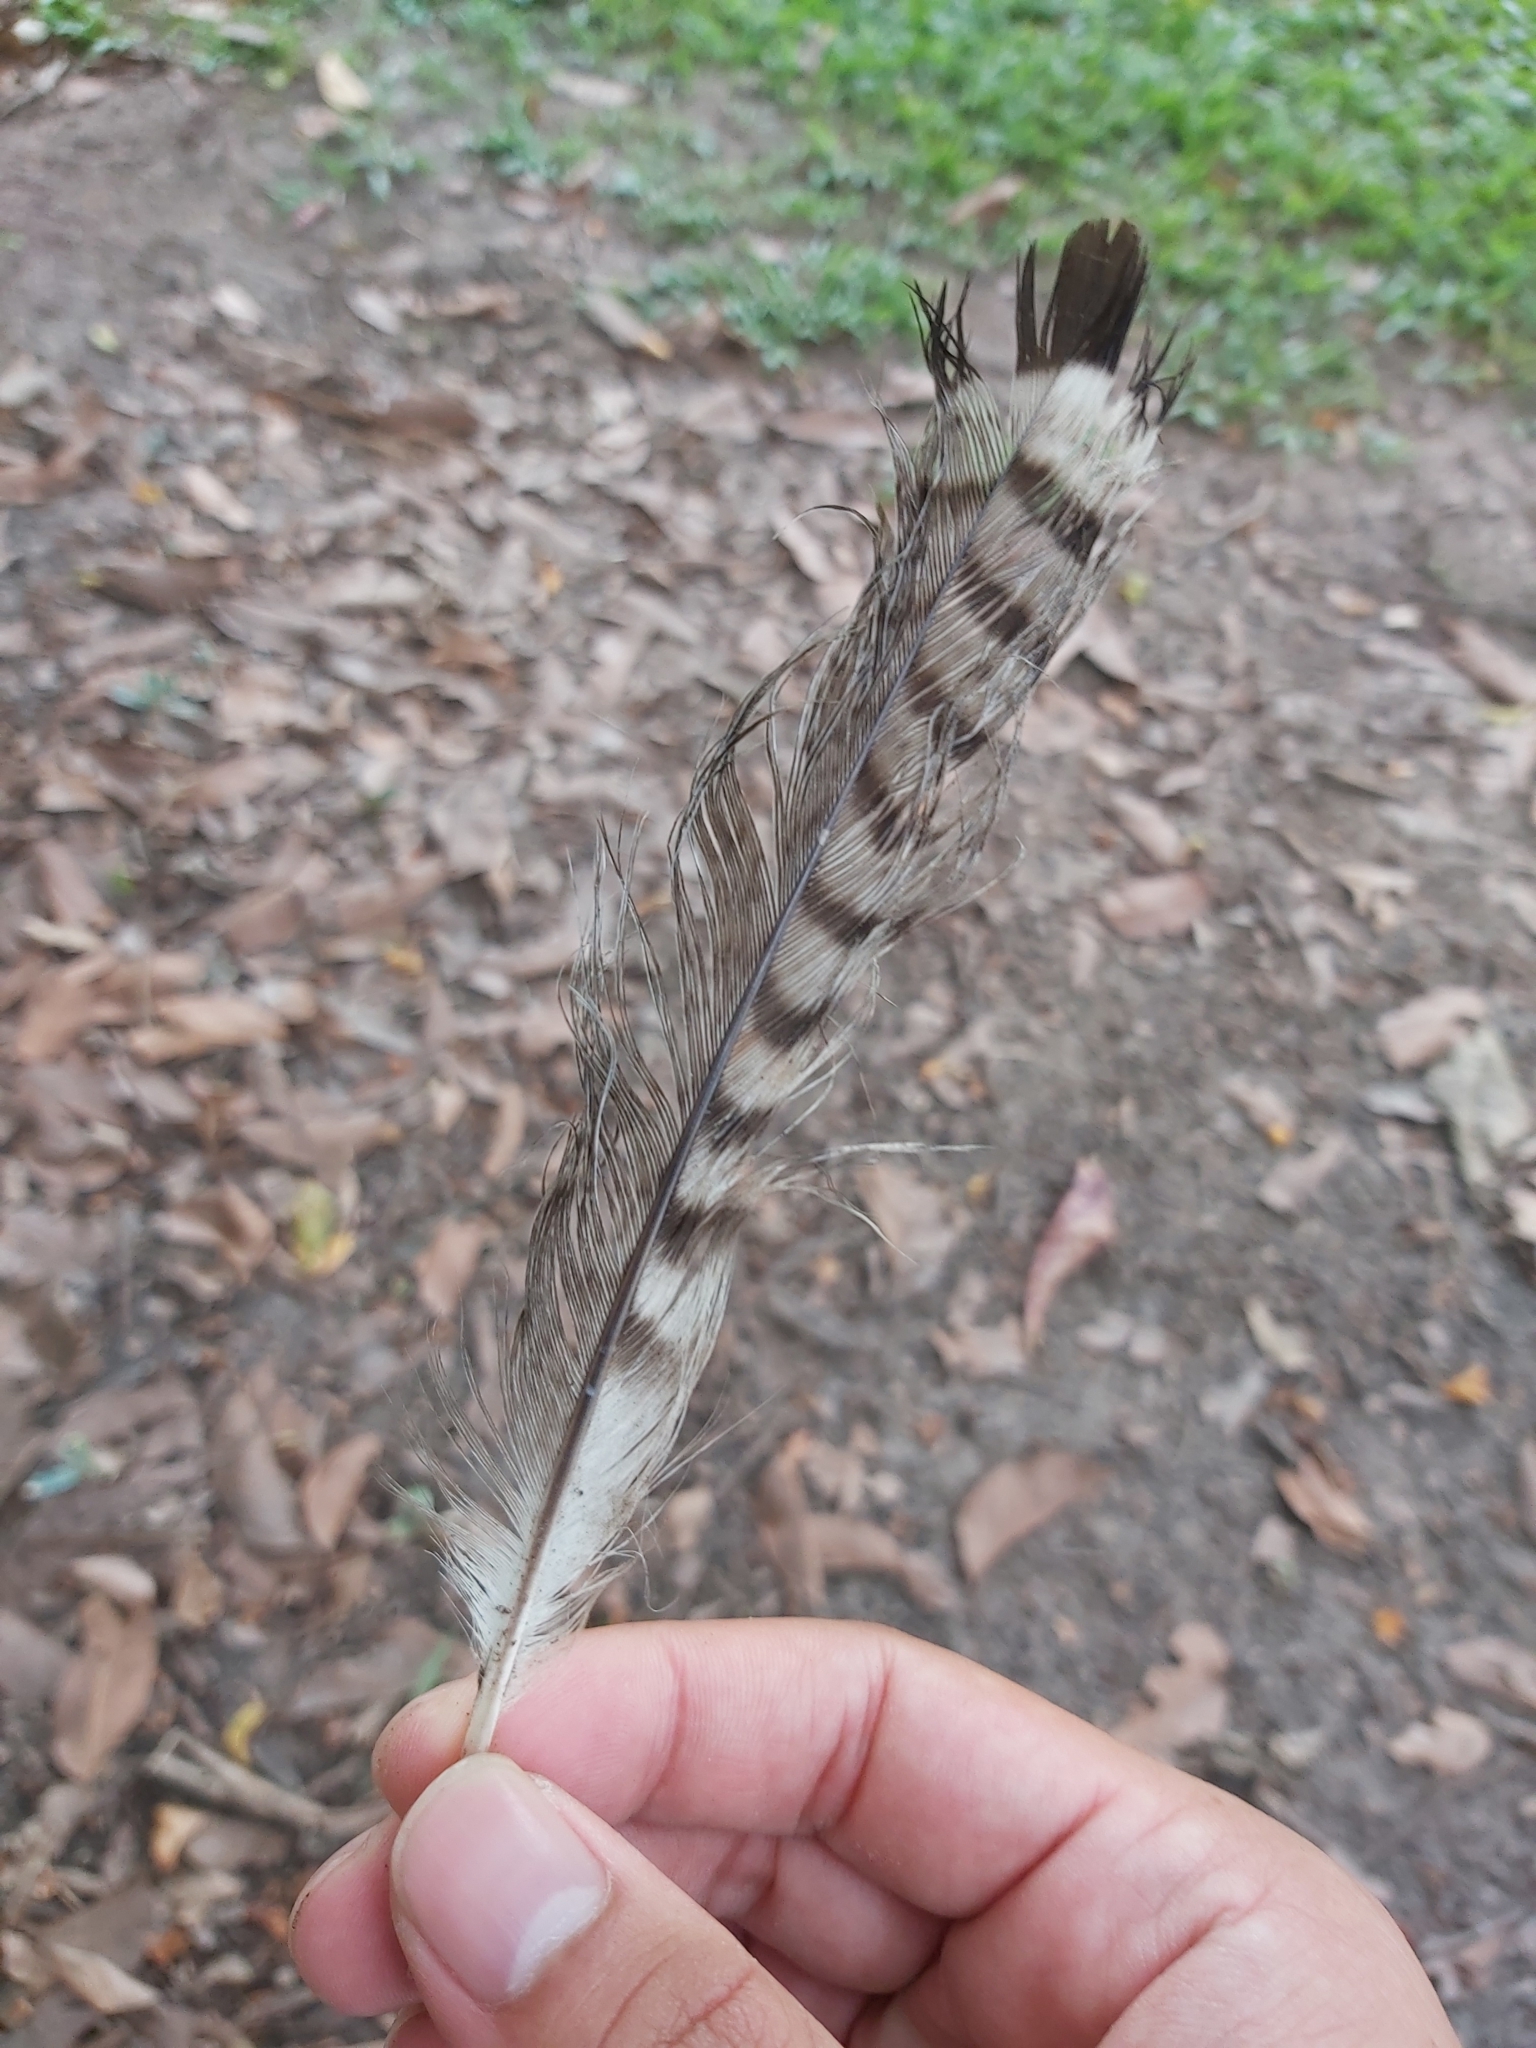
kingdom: Animalia
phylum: Chordata
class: Aves
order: Charadriiformes
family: Burhinidae
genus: Burhinus
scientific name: Burhinus grallarius
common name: Bush stone-curlew
